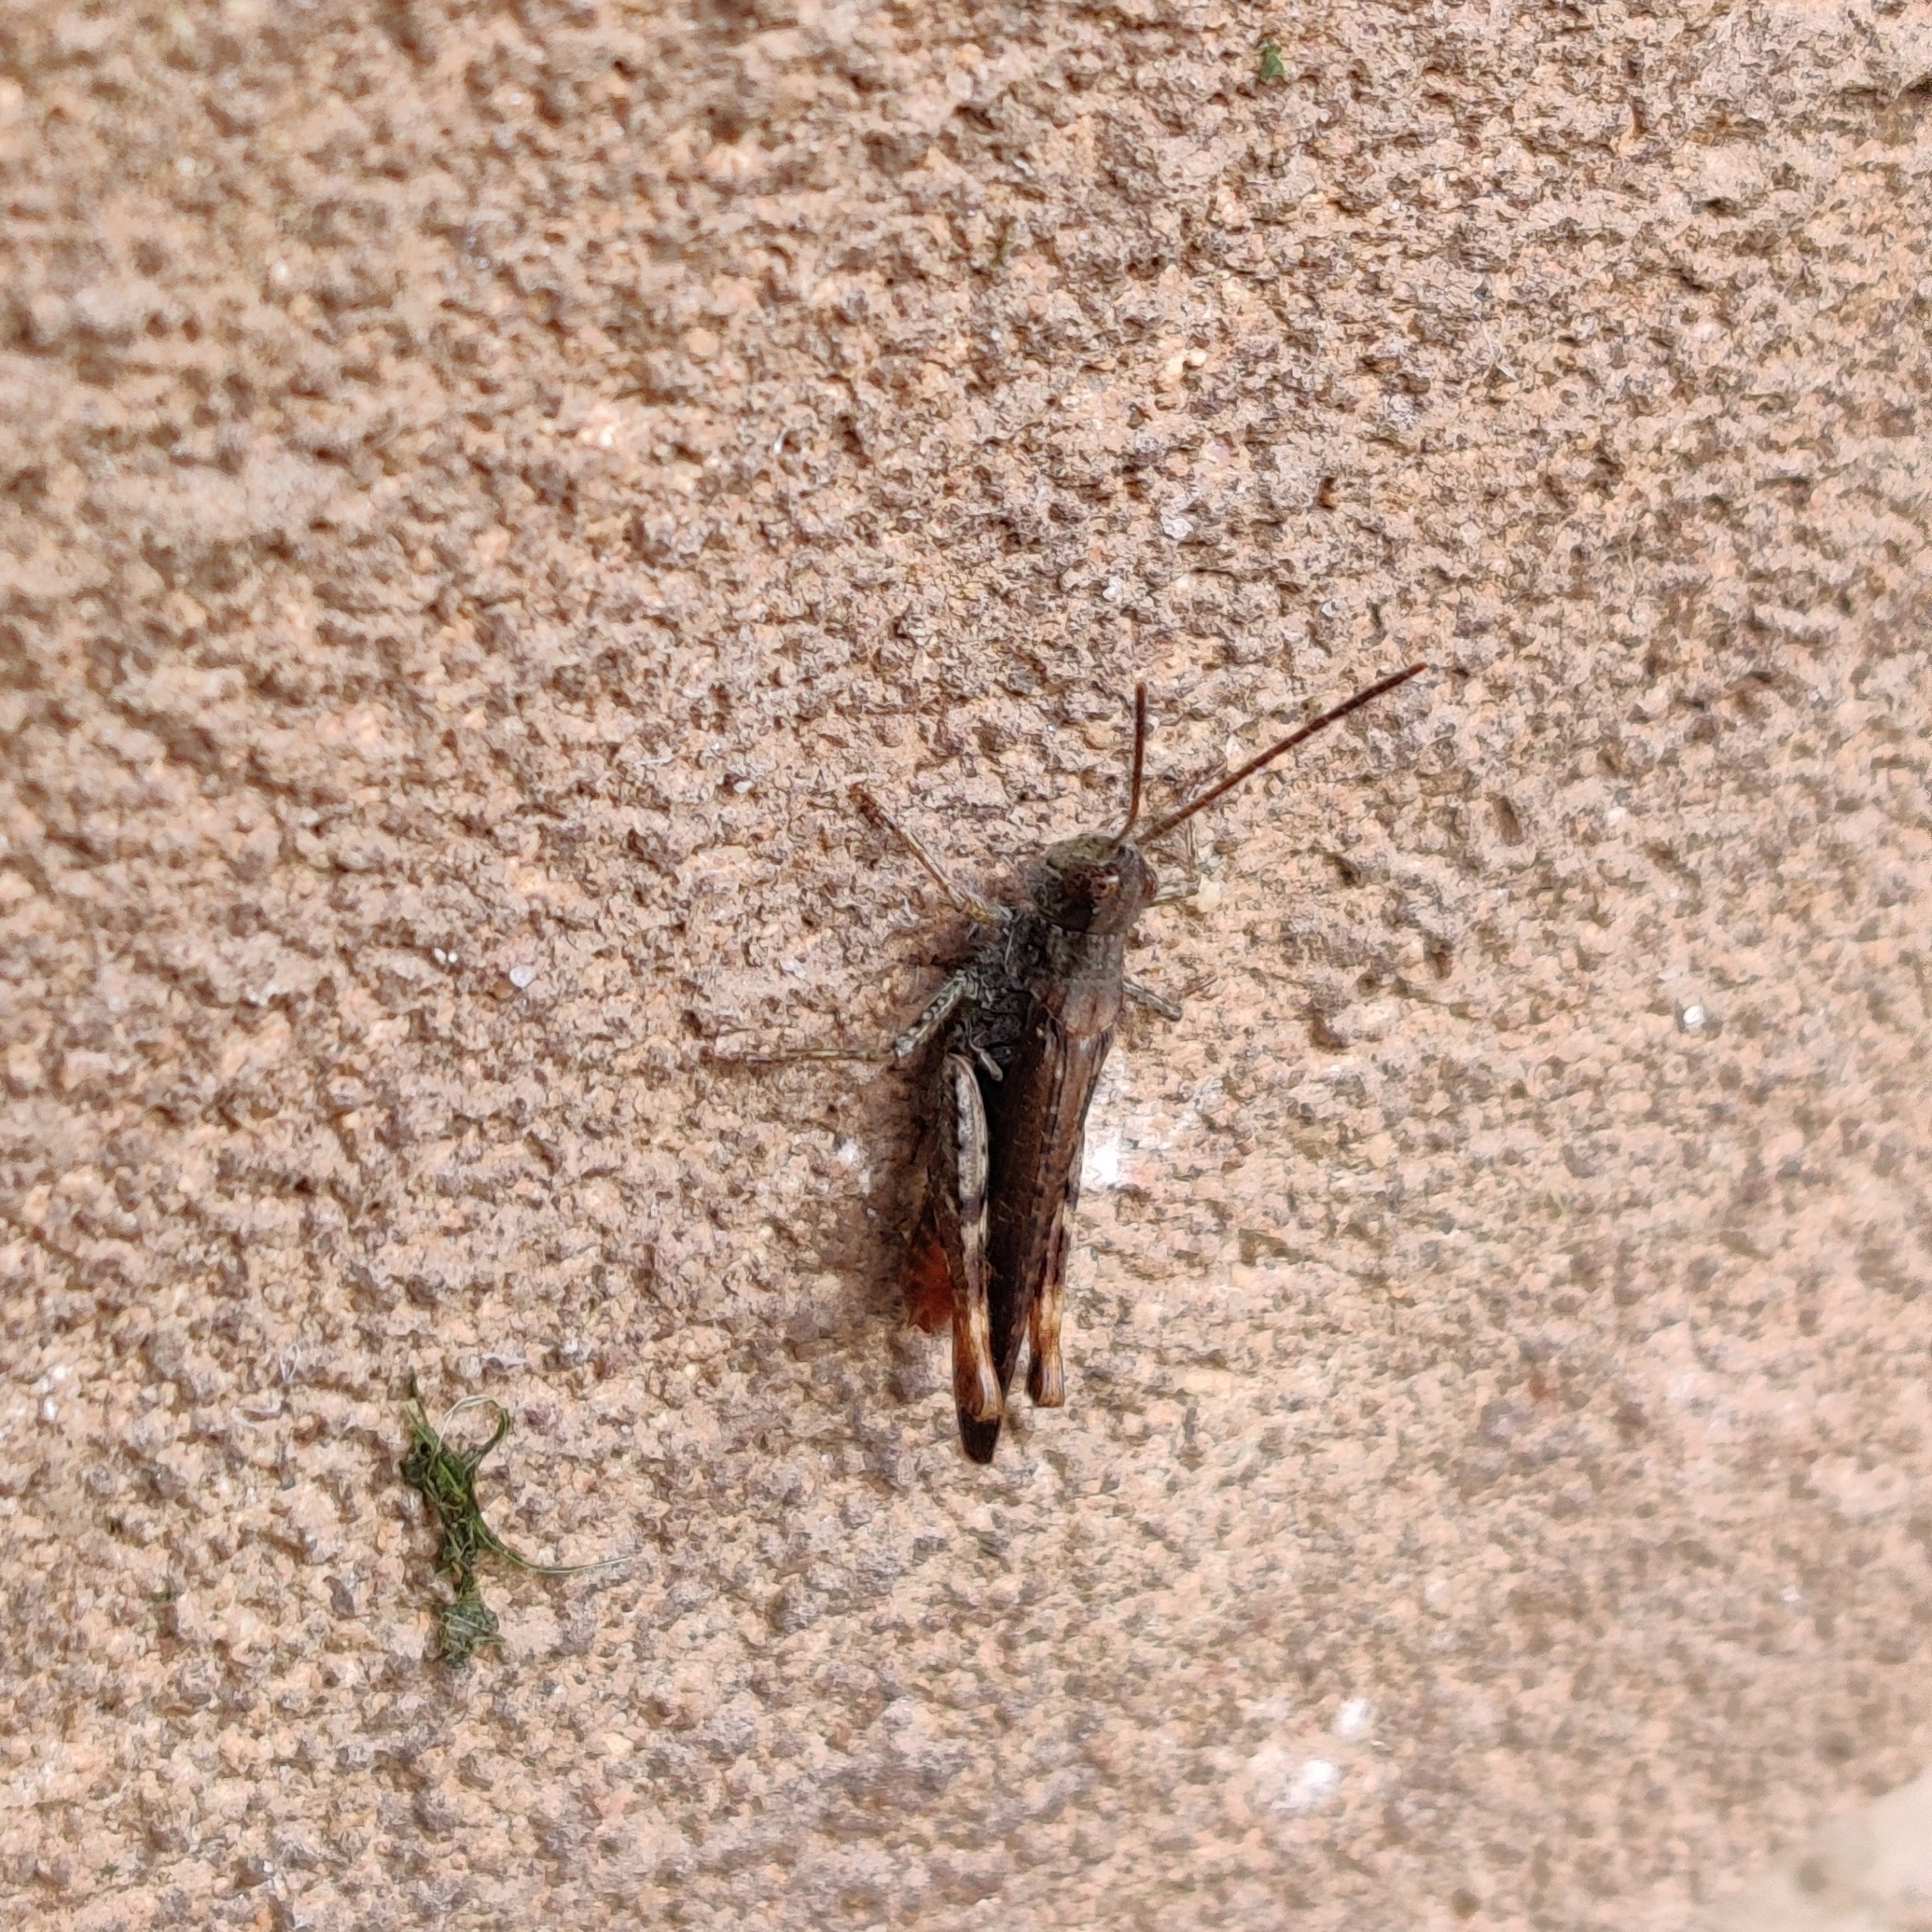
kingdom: Animalia
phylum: Arthropoda
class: Insecta
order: Orthoptera
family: Acrididae
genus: Chorthippus
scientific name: Chorthippus brunneus
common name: Field grasshopper
